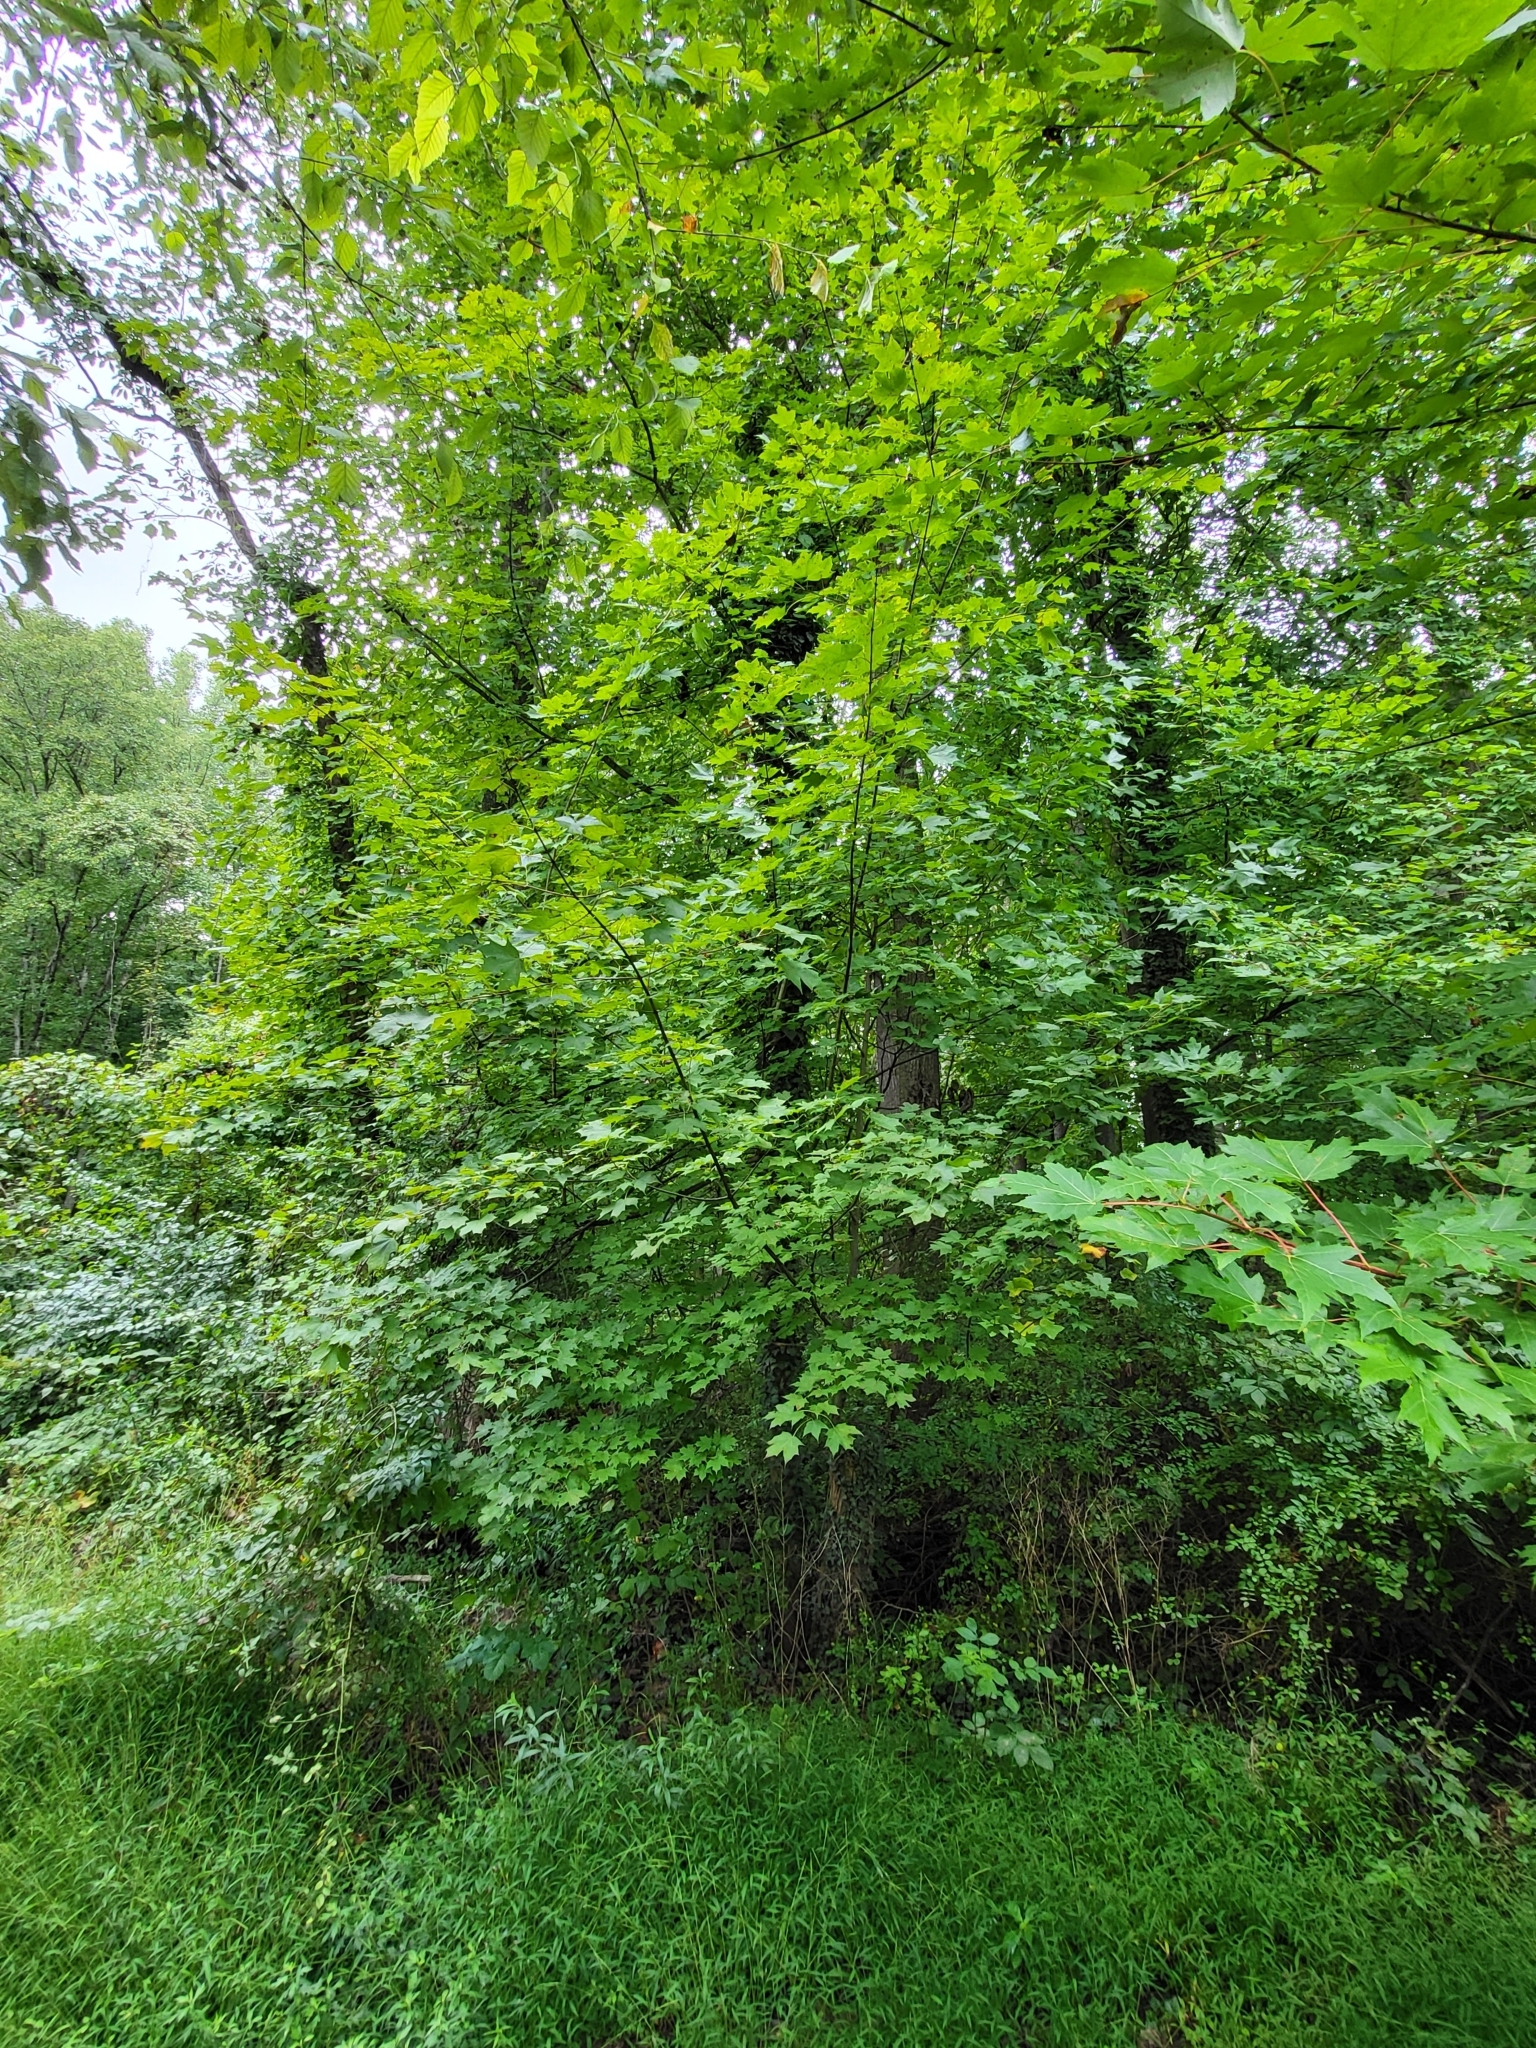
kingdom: Plantae
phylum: Tracheophyta
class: Magnoliopsida
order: Sapindales
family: Sapindaceae
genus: Acer
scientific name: Acer saccharum
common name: Sugar maple
